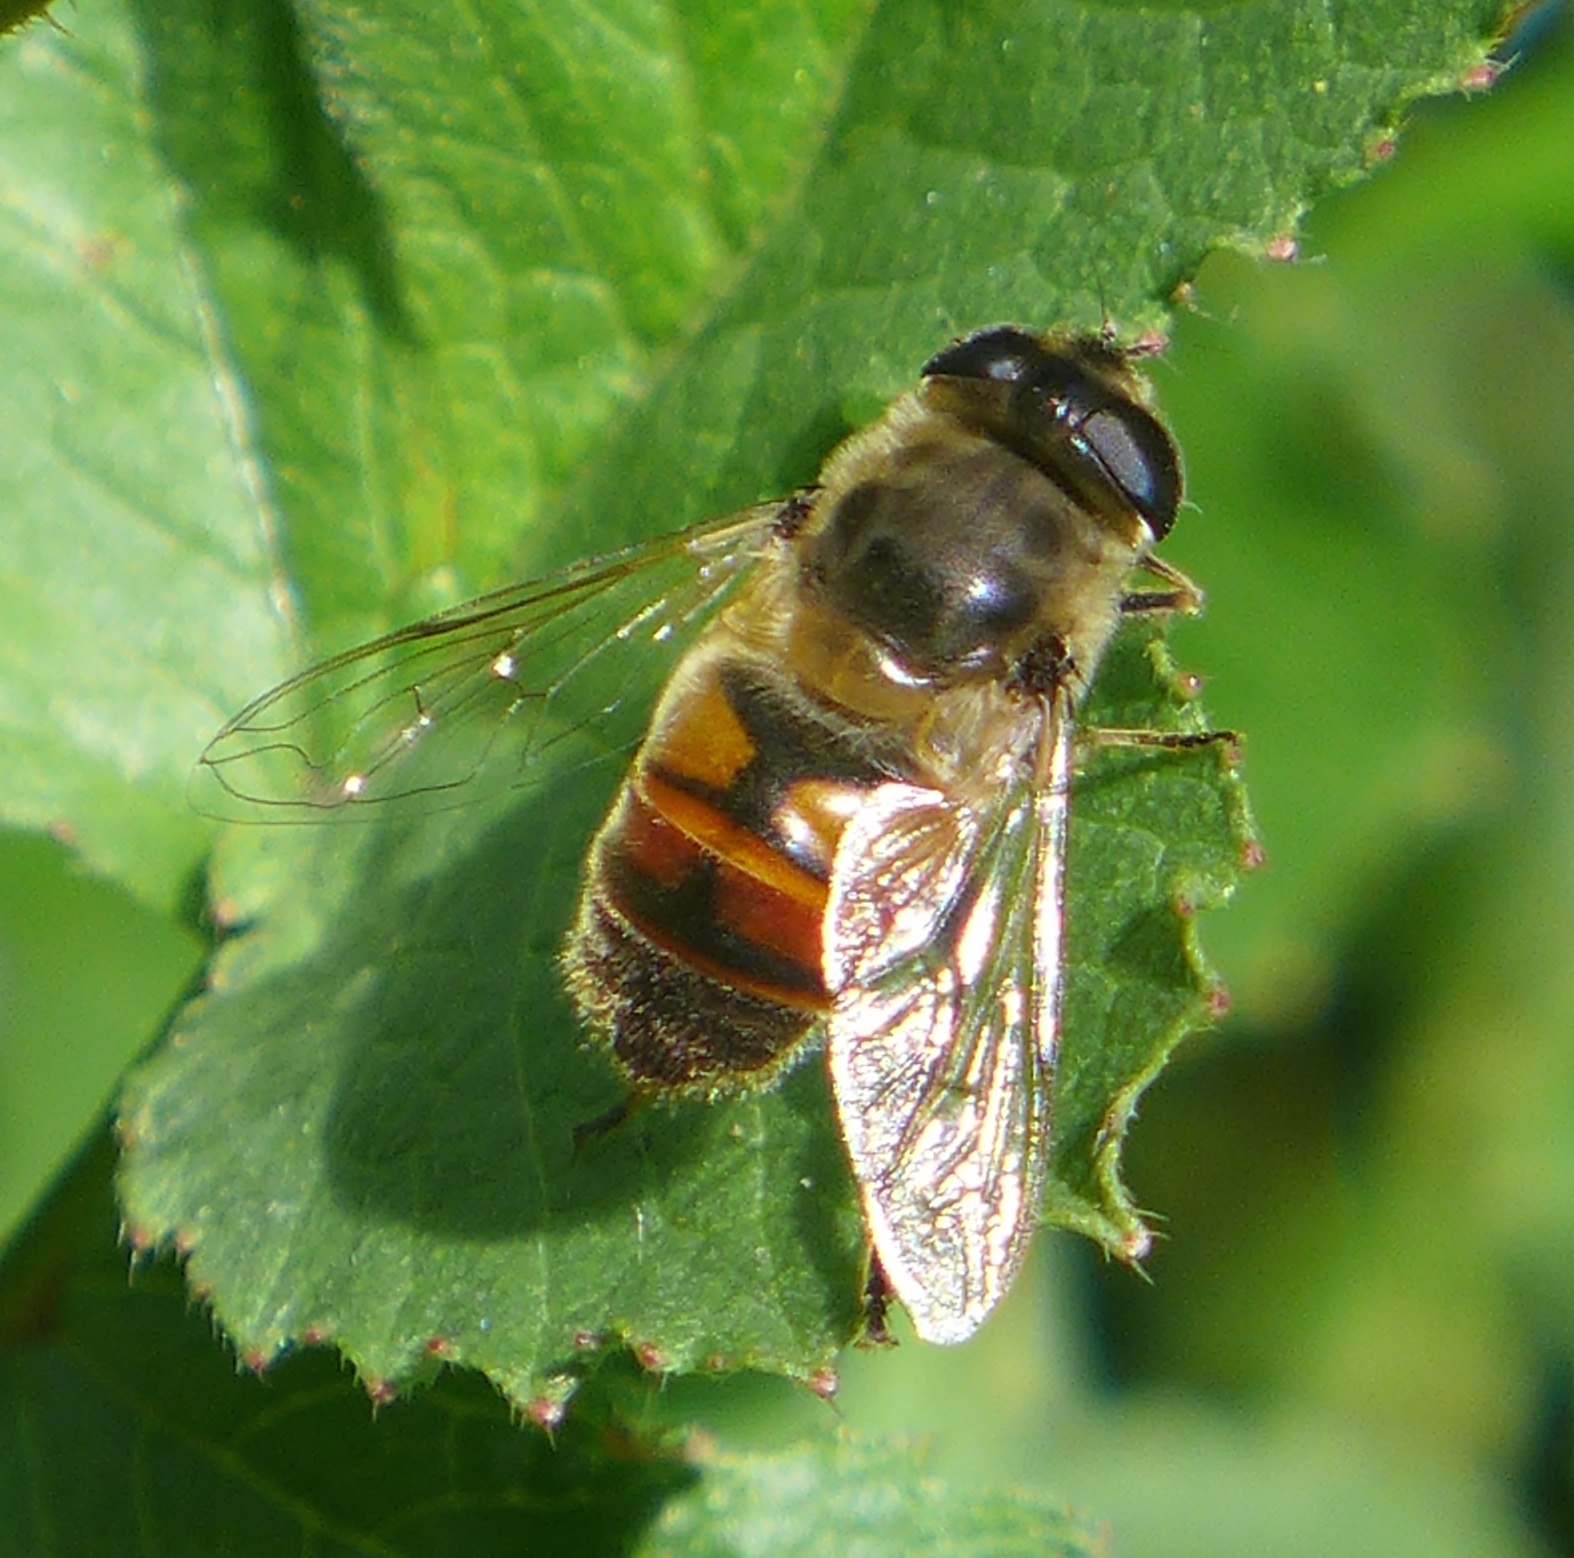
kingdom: Animalia
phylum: Arthropoda
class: Insecta
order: Diptera
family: Syrphidae
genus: Eristalis
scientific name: Eristalis tenax
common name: Drone fly
